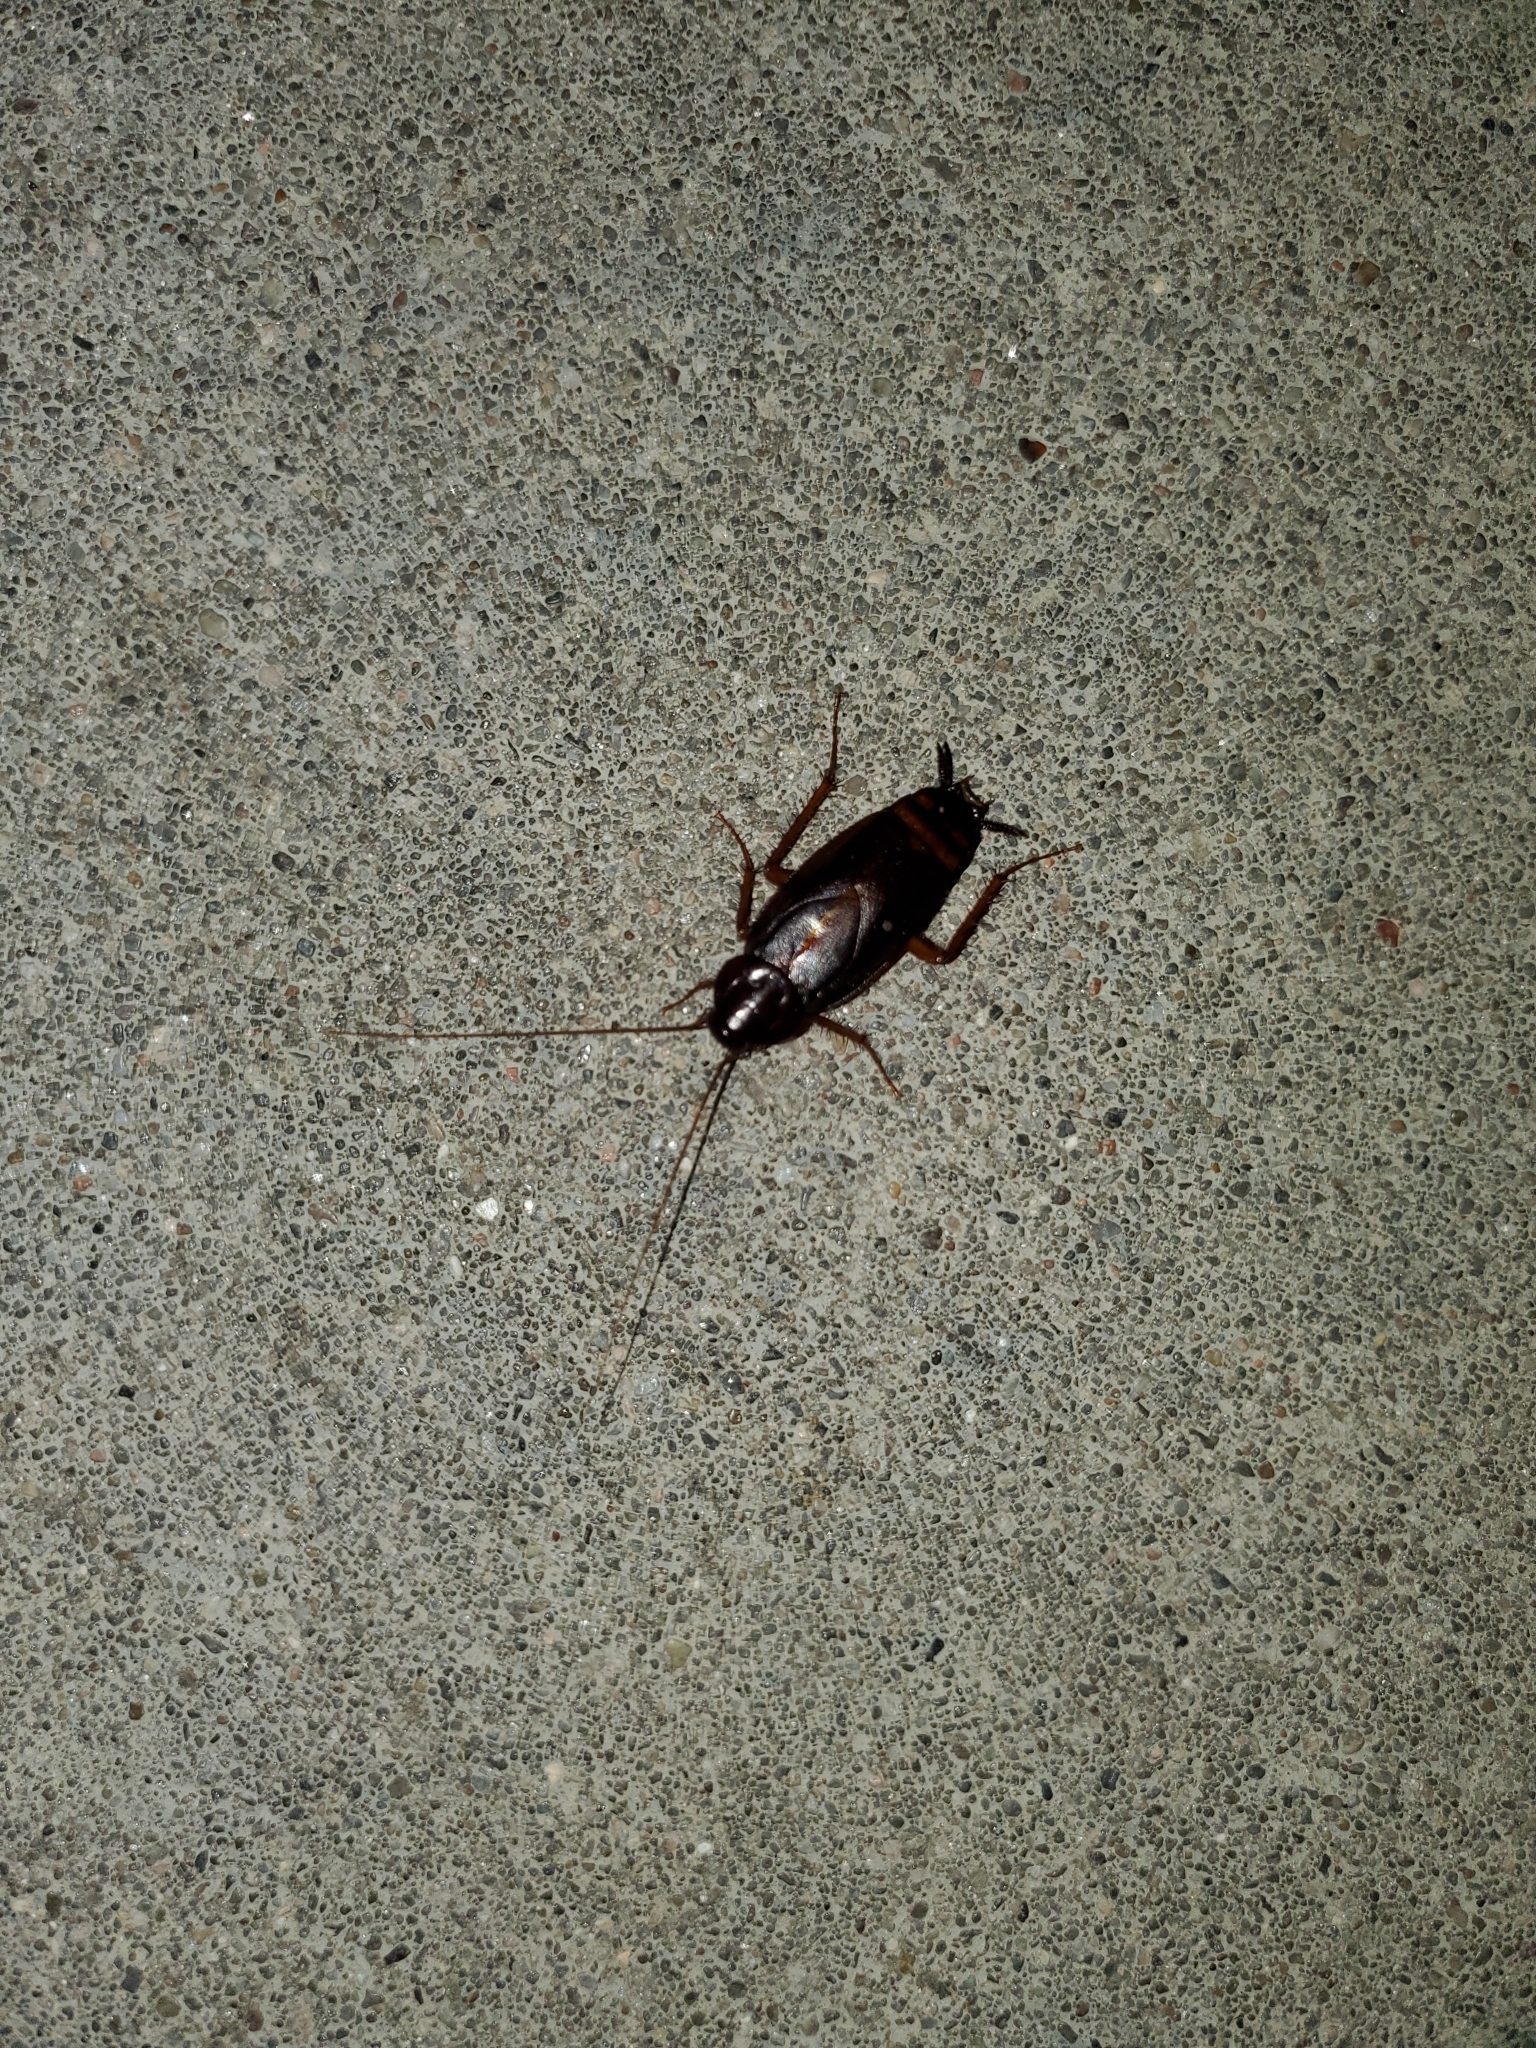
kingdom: Animalia
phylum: Arthropoda
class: Insecta
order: Blattodea
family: Blattidae
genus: Blatta
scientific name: Blatta orientalis
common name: Oriental cockroach
